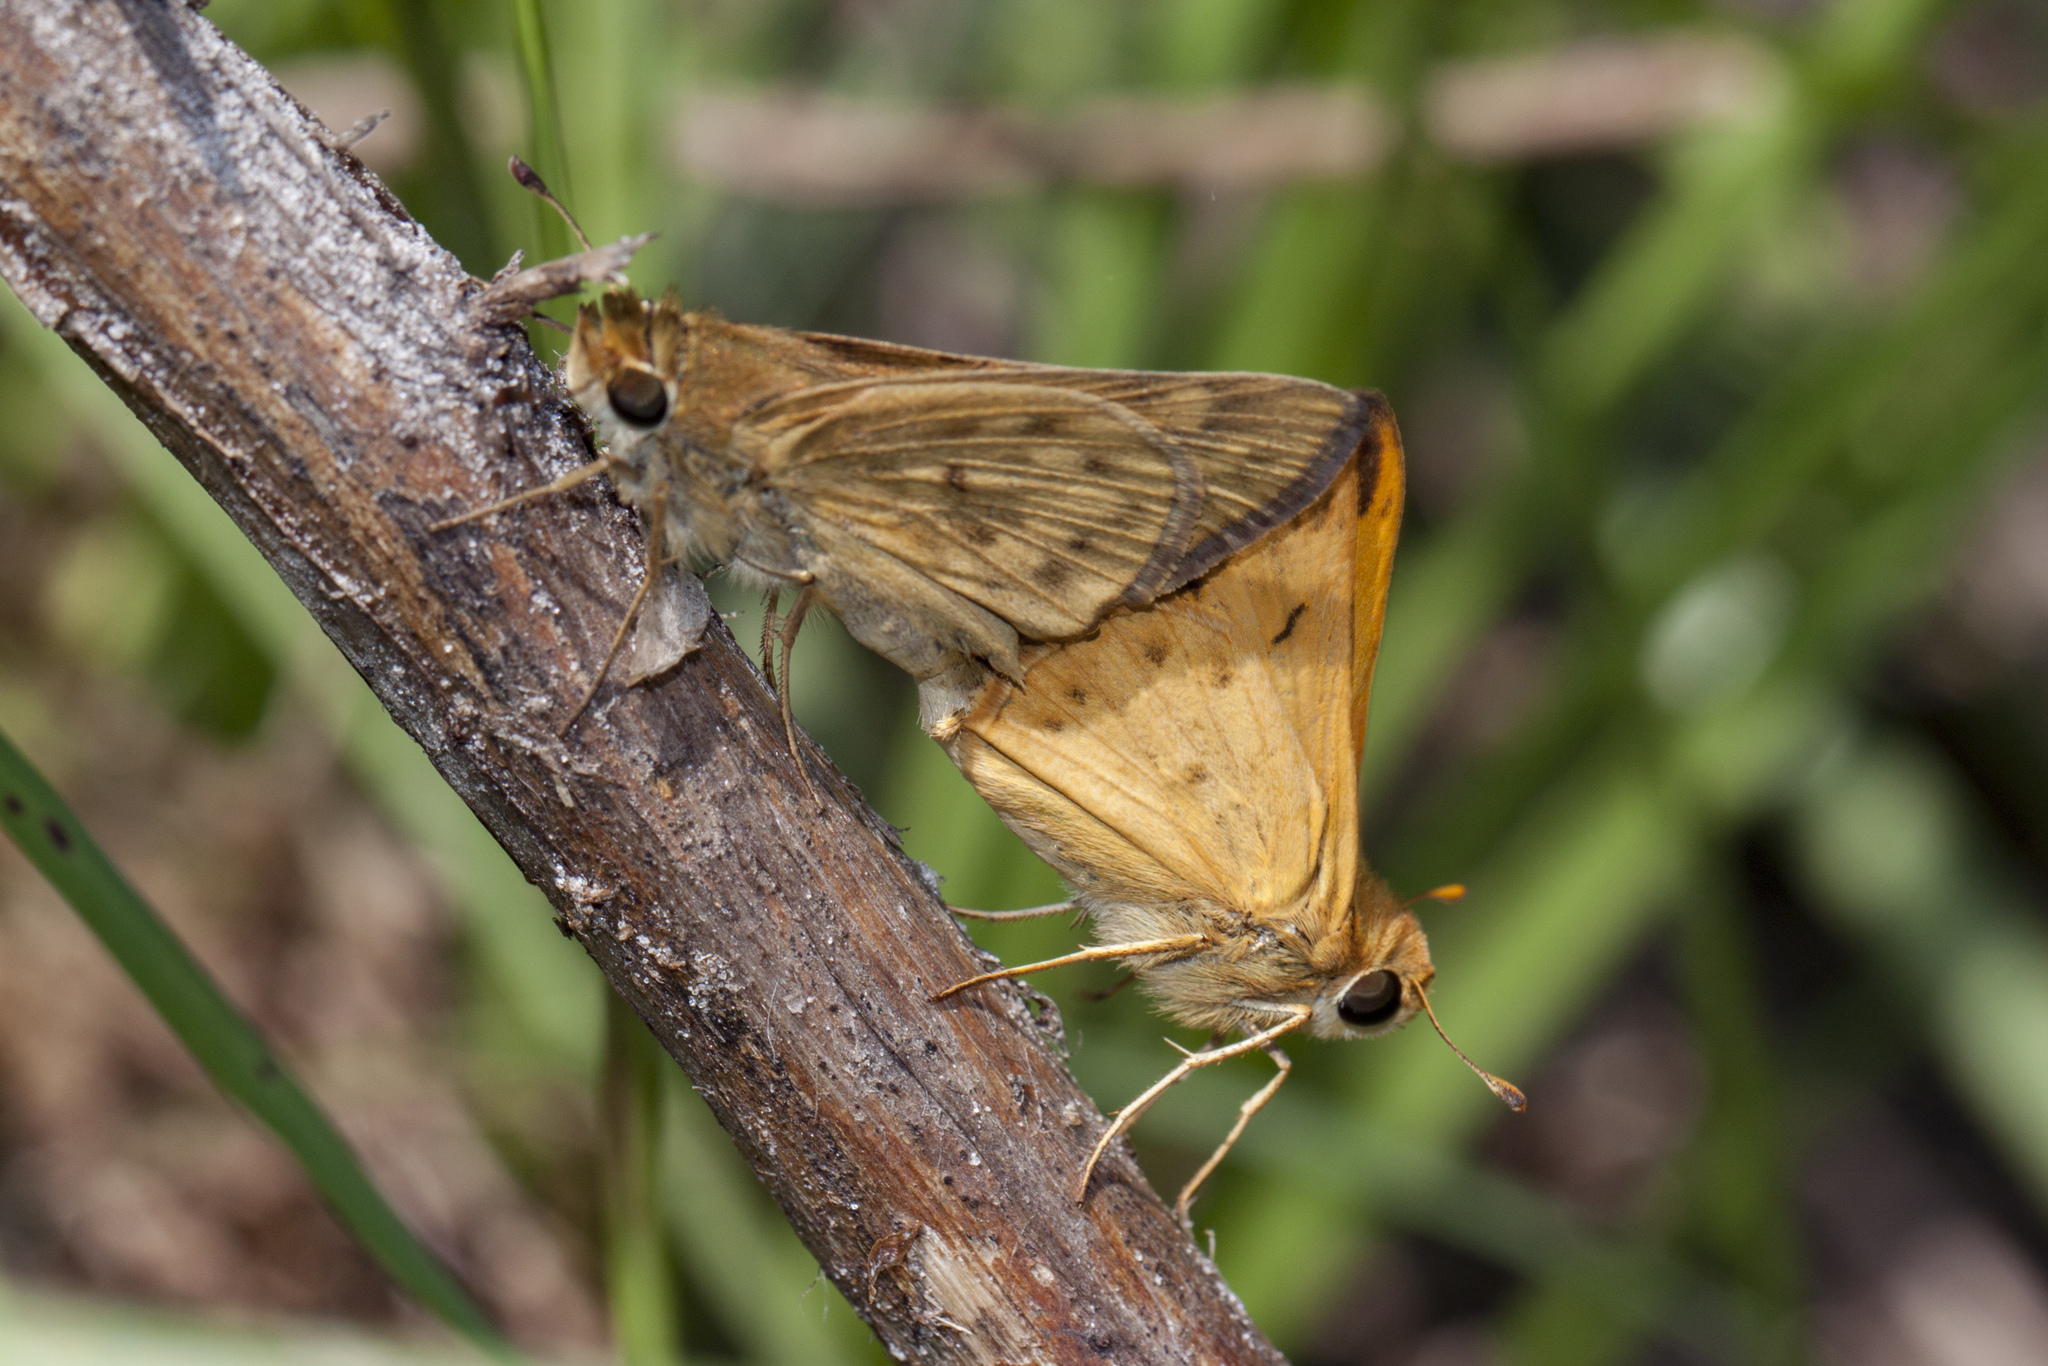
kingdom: Animalia
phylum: Arthropoda
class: Insecta
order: Lepidoptera
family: Hesperiidae
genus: Hylephila
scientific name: Hylephila phyleus
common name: Fiery skipper
